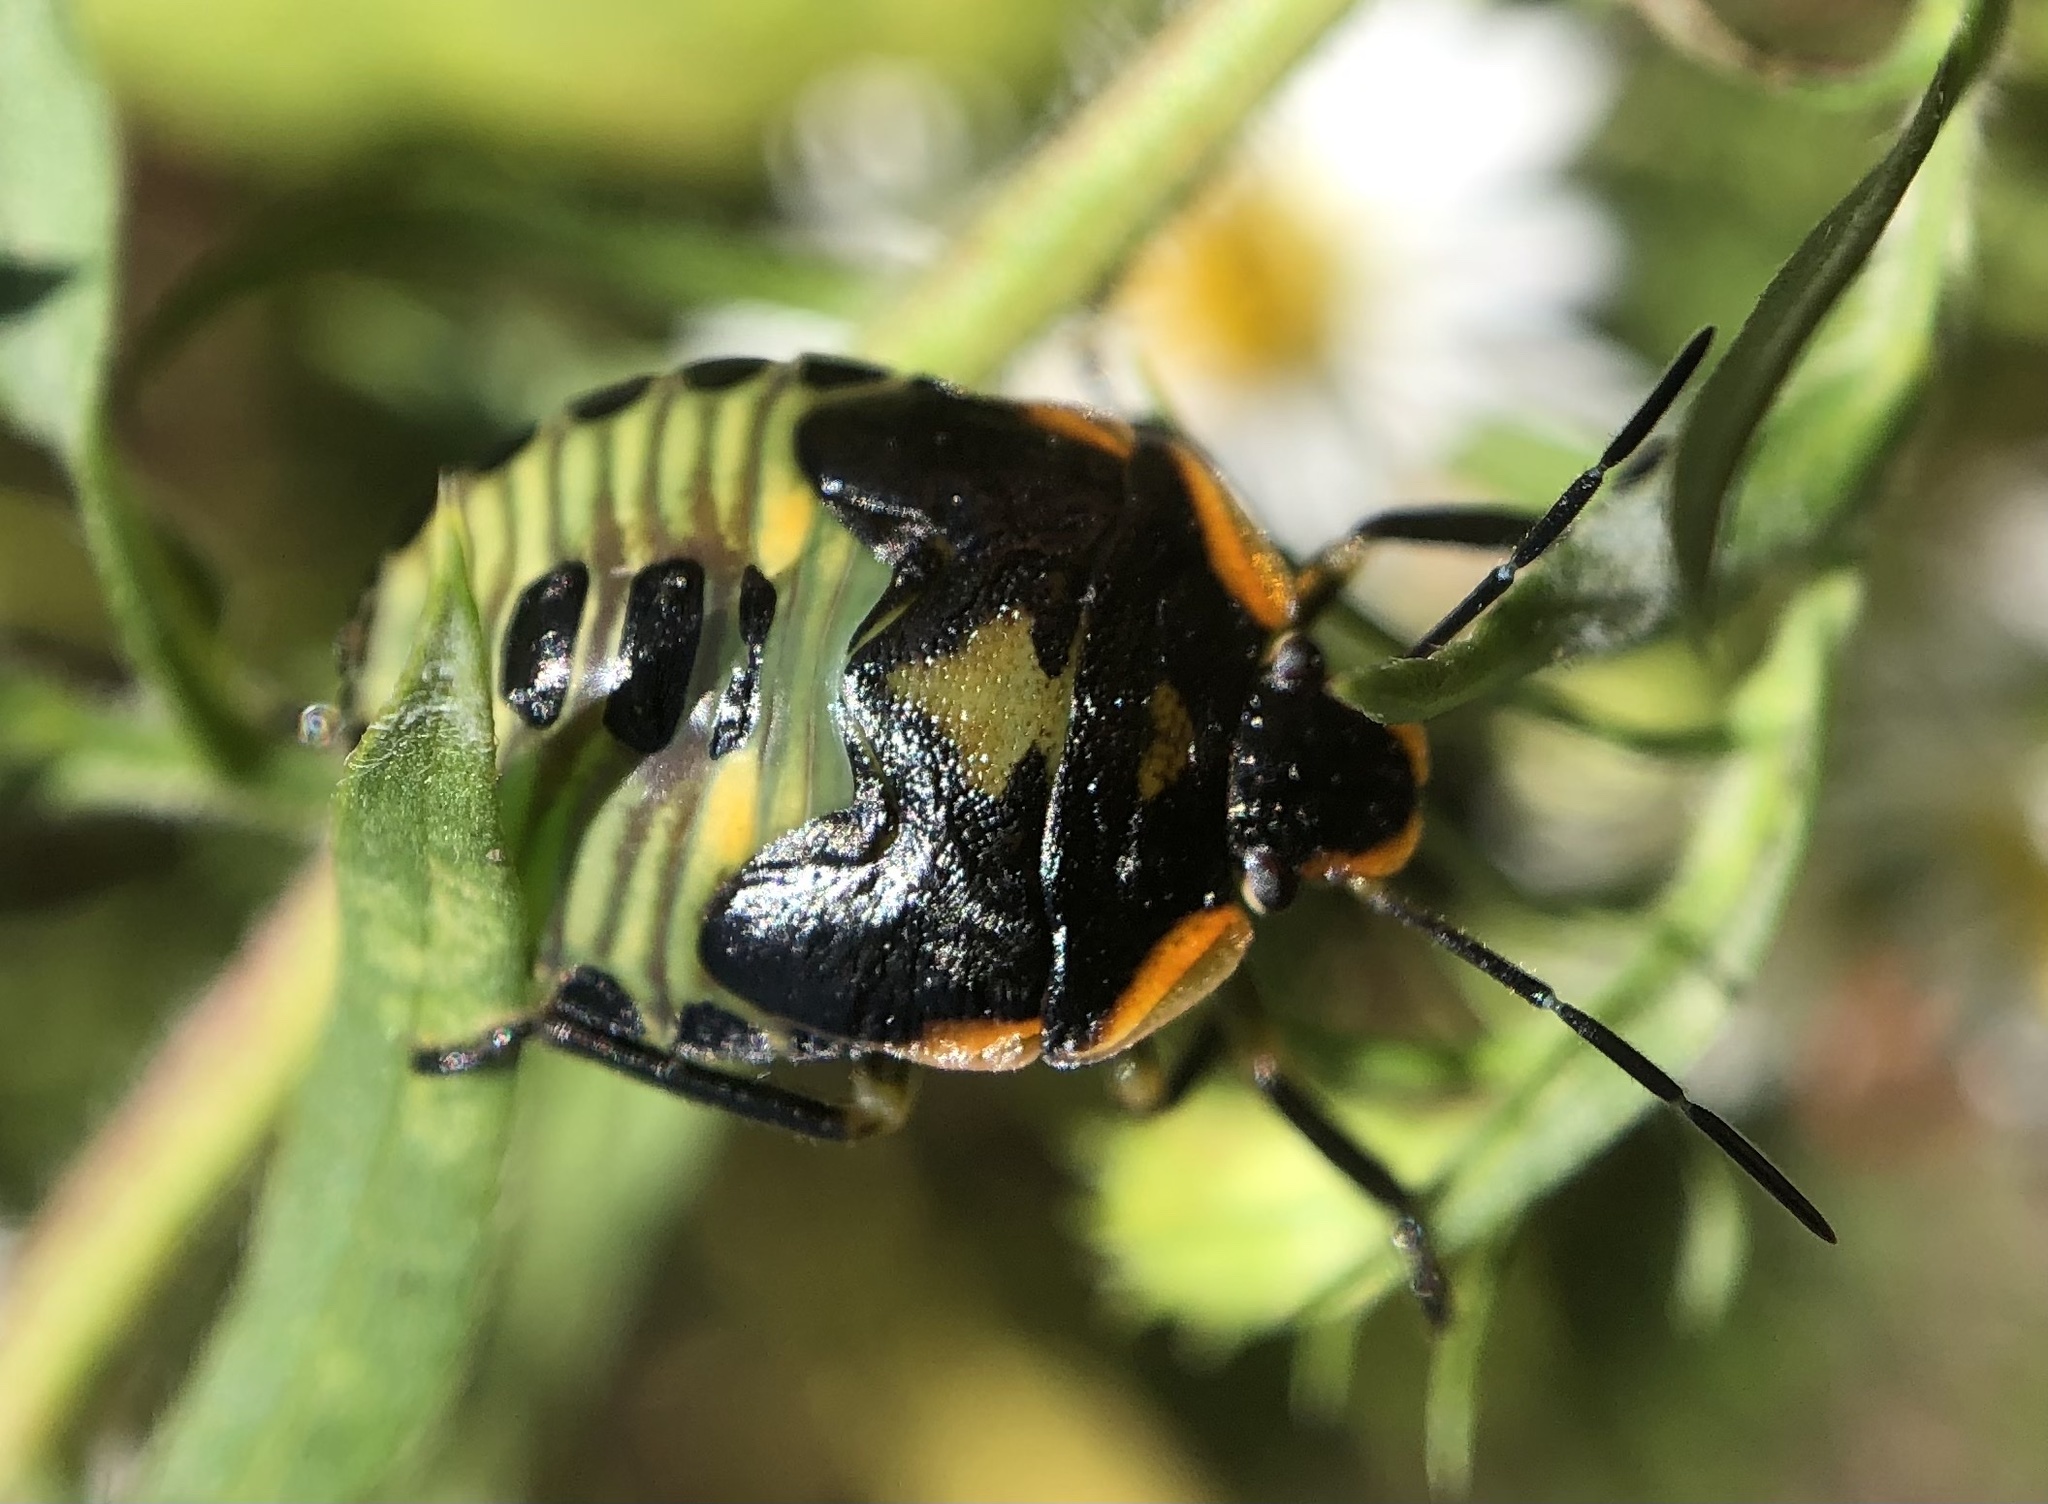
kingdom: Animalia
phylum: Arthropoda
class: Insecta
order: Hemiptera
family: Pentatomidae
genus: Chinavia
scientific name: Chinavia hilaris
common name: Green stink bug
